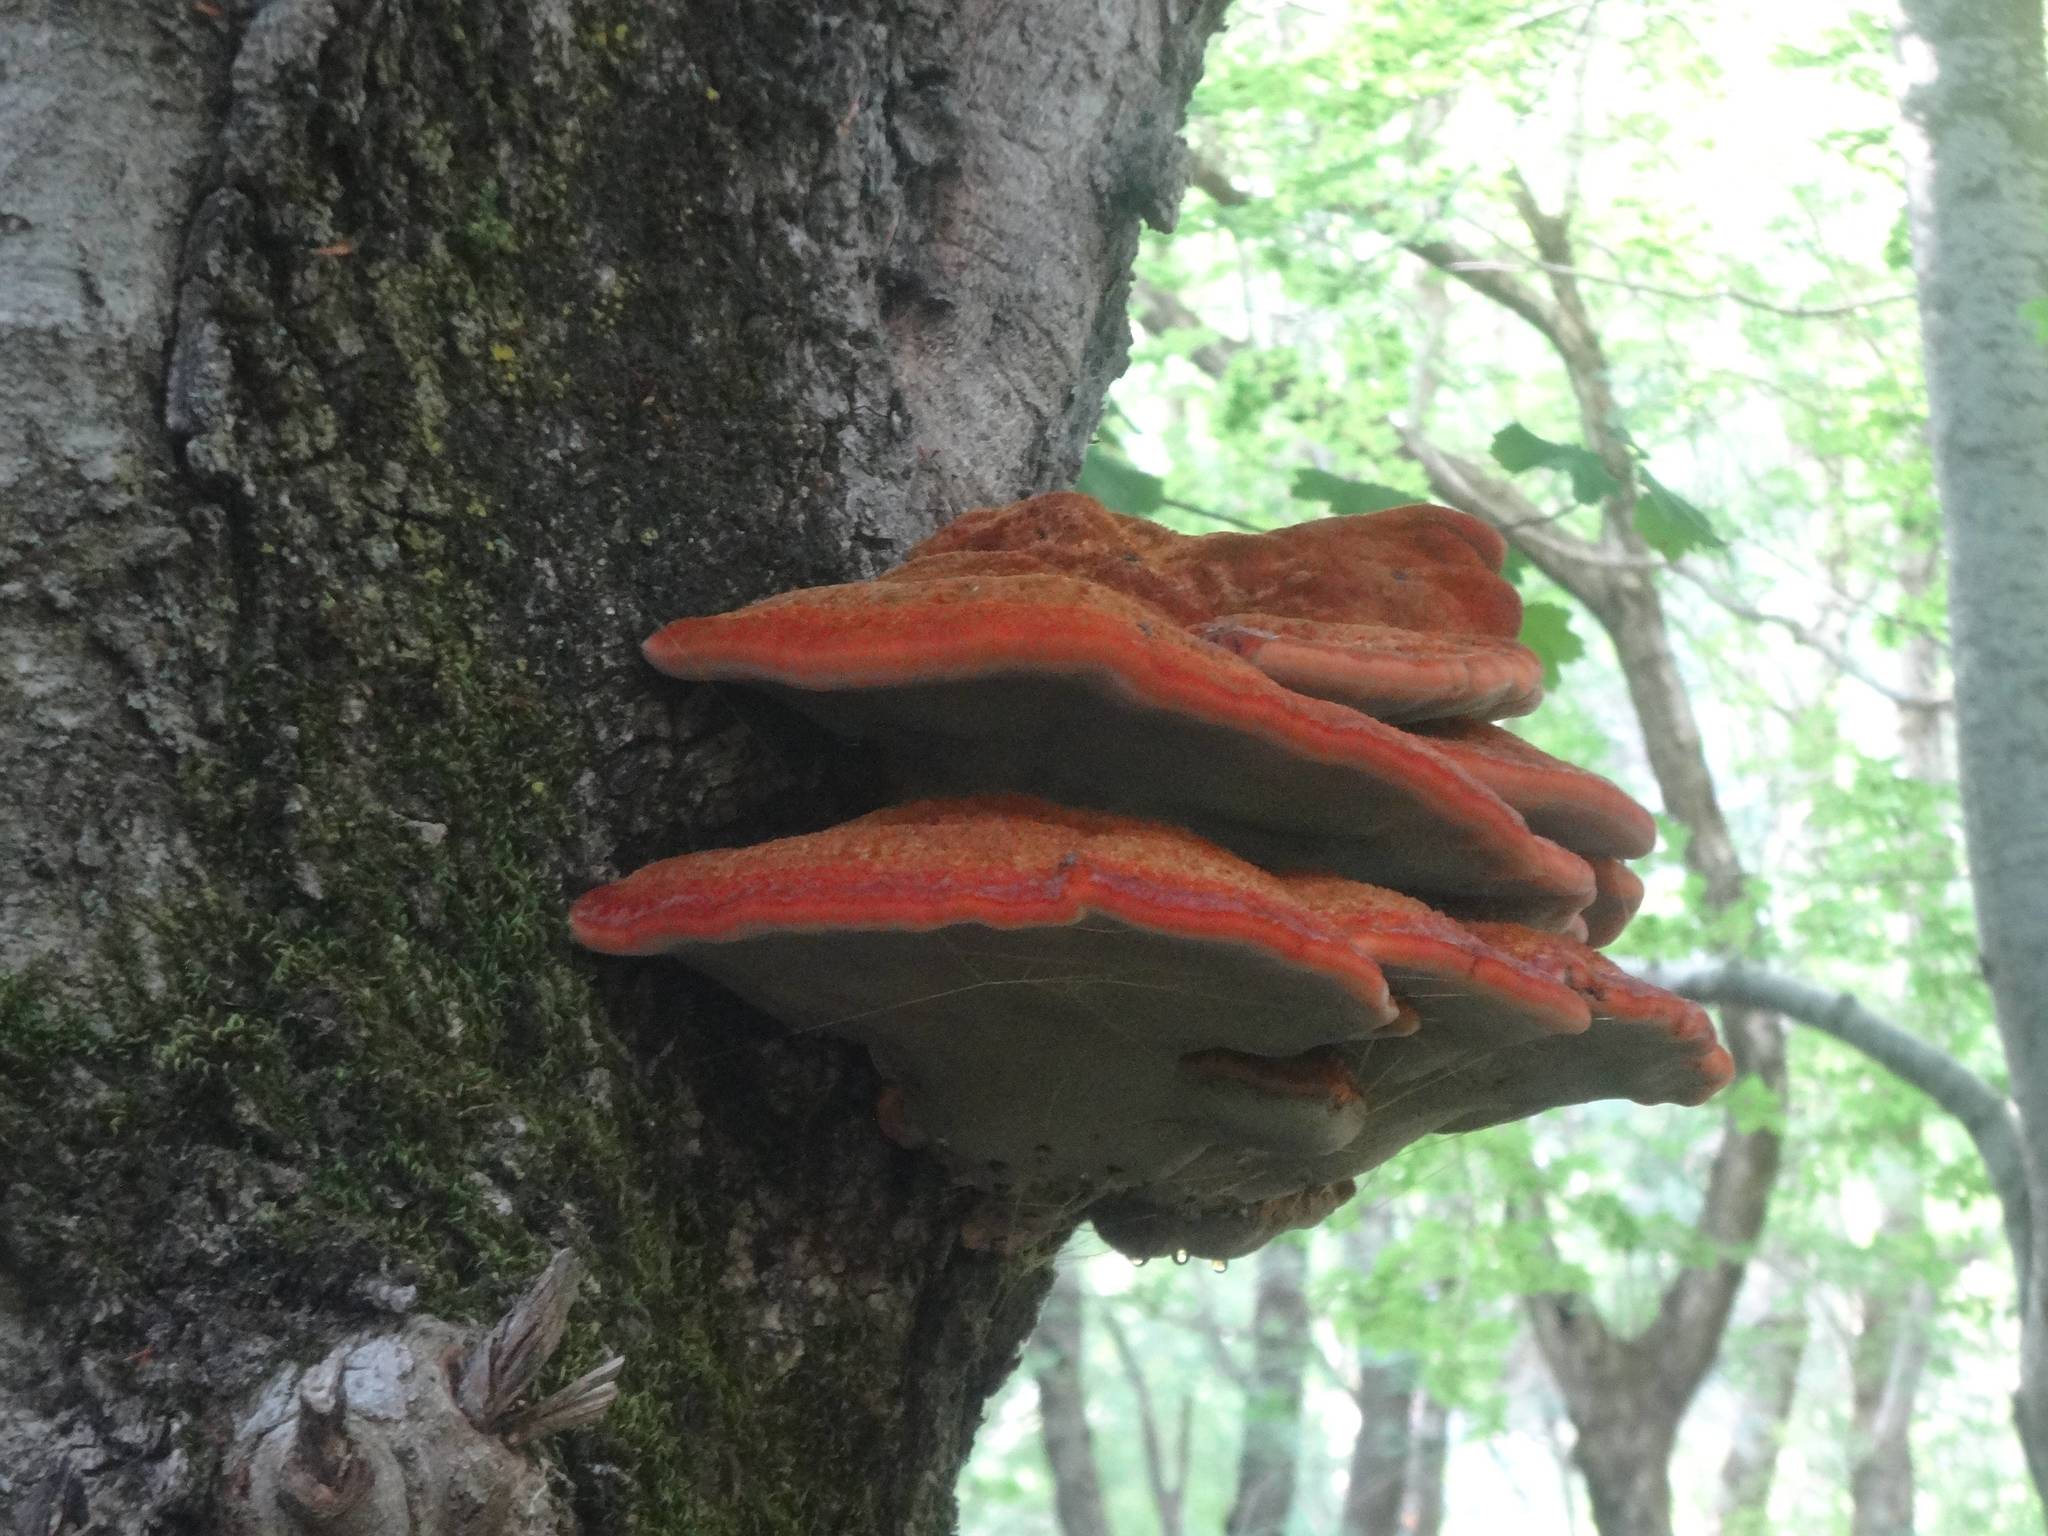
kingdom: Fungi
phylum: Basidiomycota
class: Agaricomycetes
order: Hymenochaetales
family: Hymenochaetaceae
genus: Inonotus
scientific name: Inonotus hispidus
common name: Shaggy bracket
